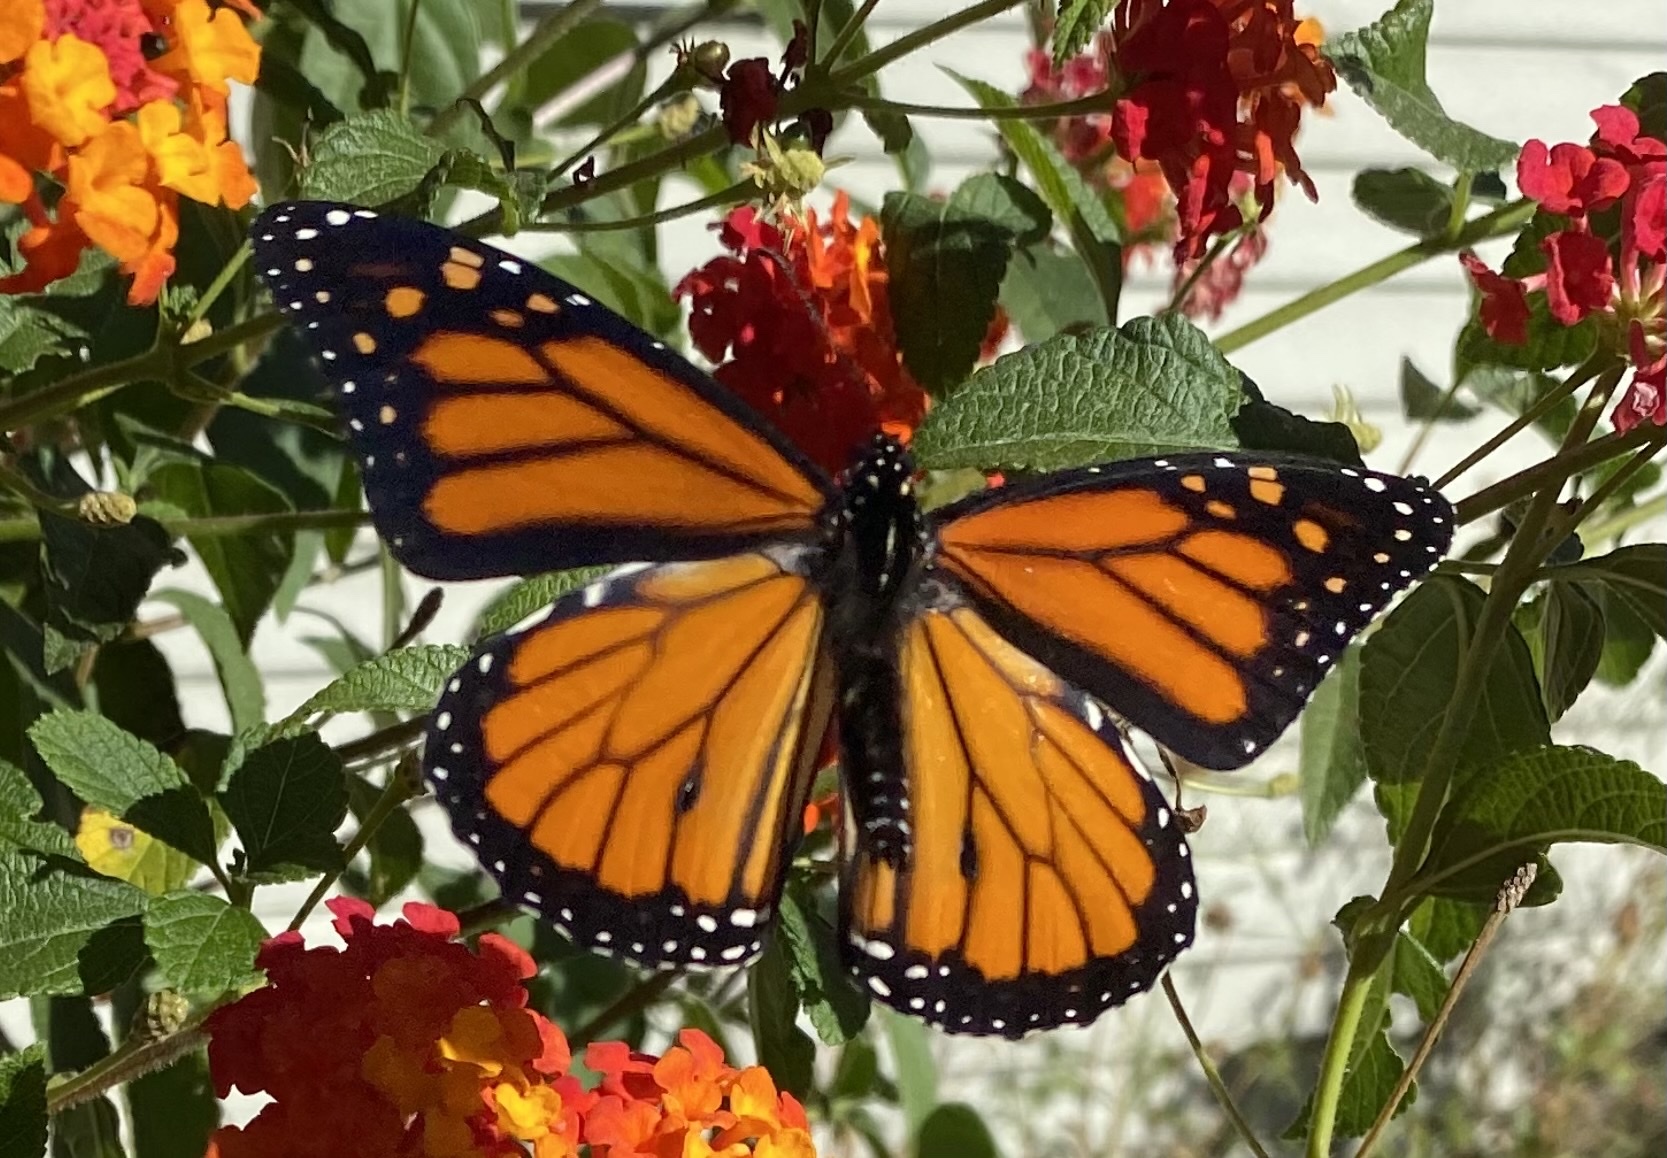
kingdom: Animalia
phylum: Arthropoda
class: Insecta
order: Lepidoptera
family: Nymphalidae
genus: Danaus
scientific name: Danaus plexippus
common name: Monarch
